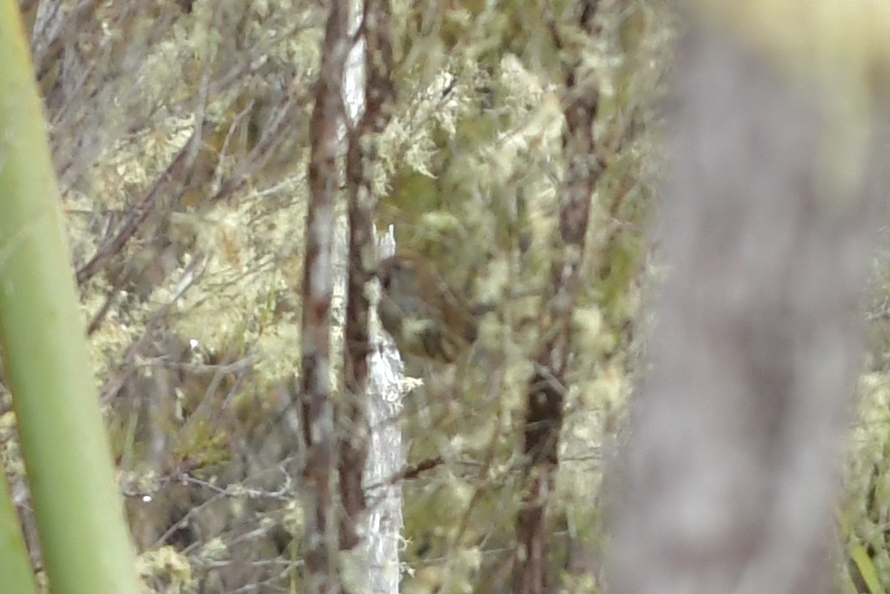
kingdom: Animalia
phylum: Chordata
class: Aves
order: Passeriformes
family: Locustellidae
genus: Megalurus
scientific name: Megalurus punctatus
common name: New zealand fernbird
